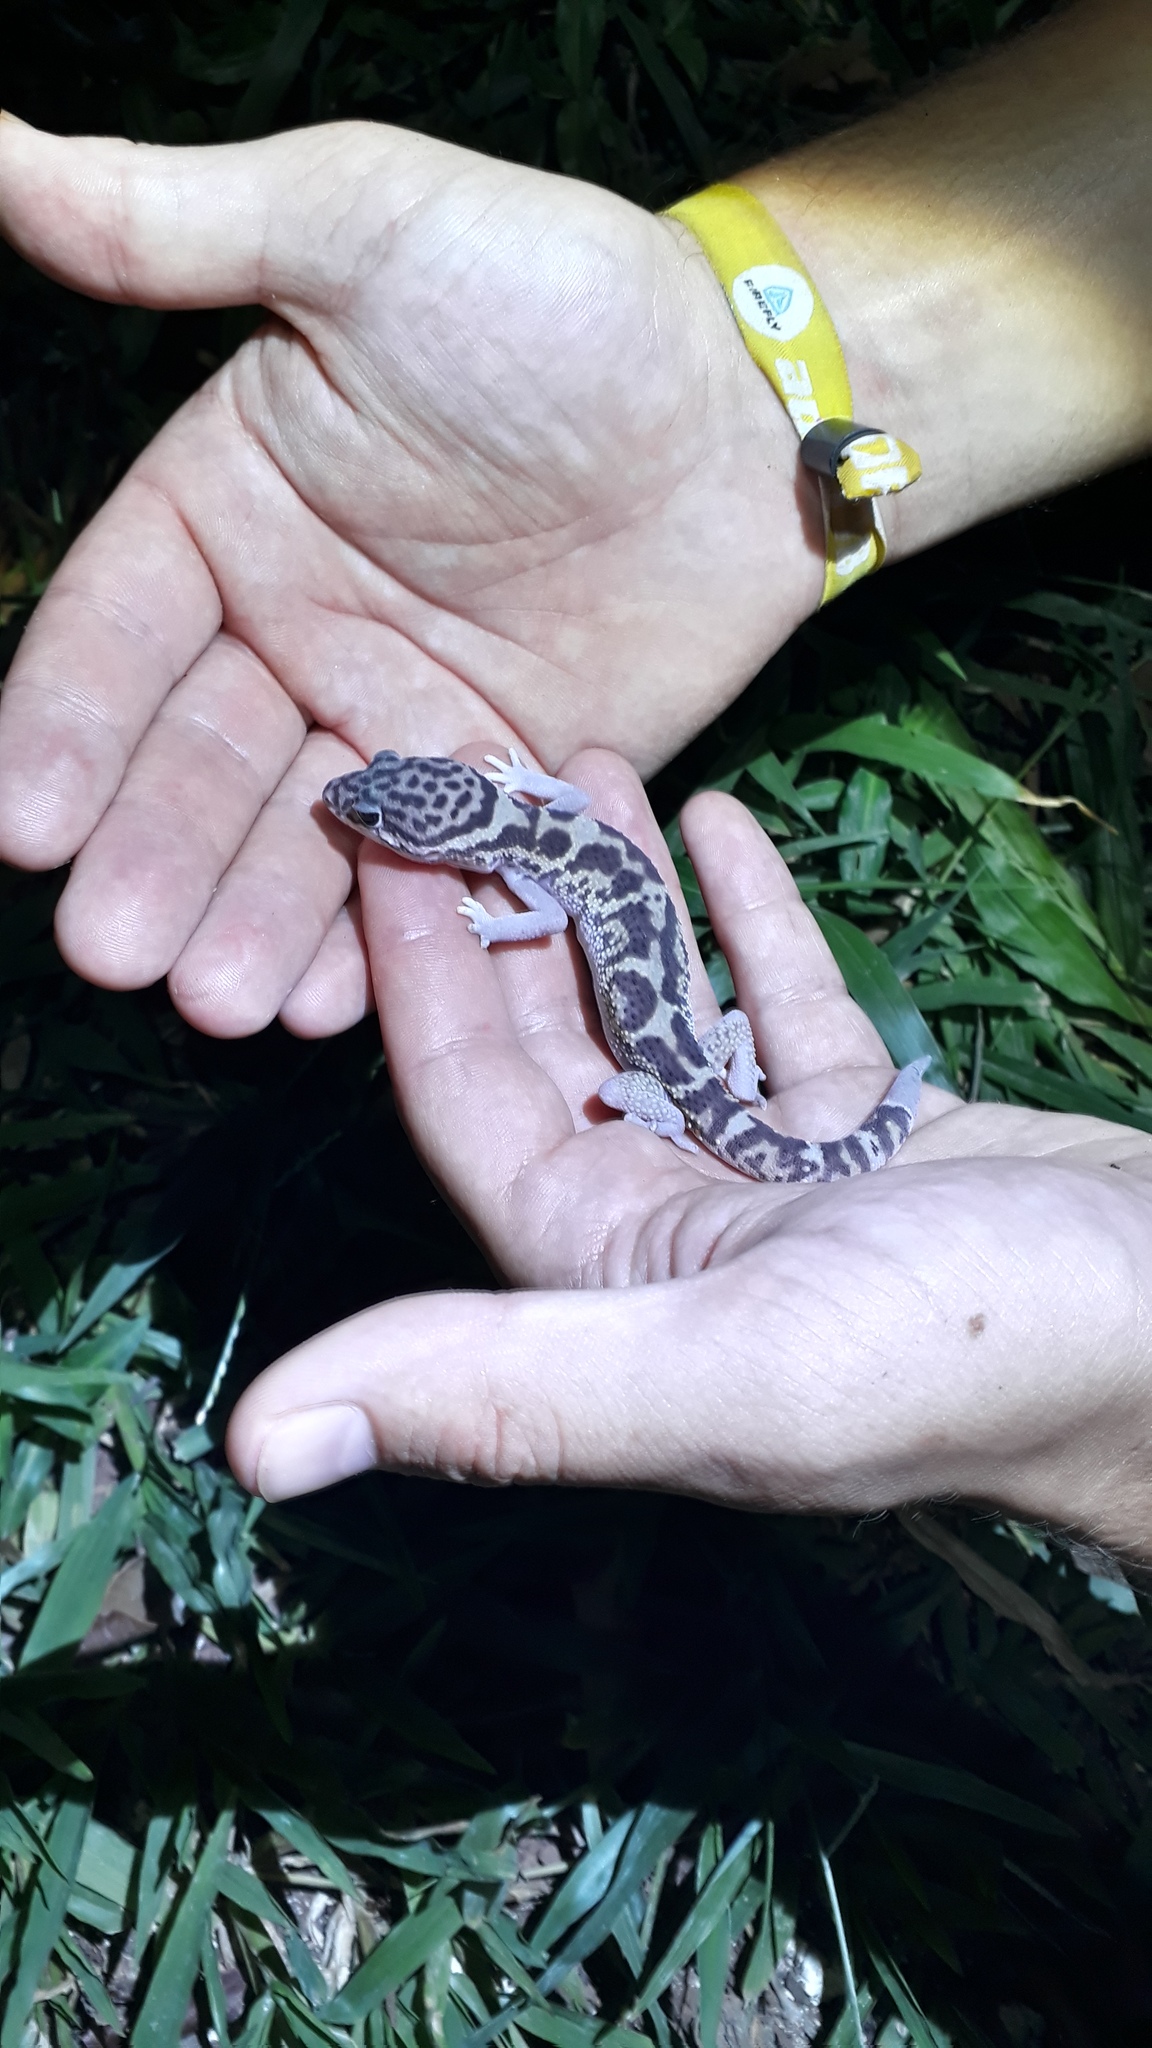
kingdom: Animalia
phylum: Chordata
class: Squamata
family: Eublepharidae
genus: Coleonyx
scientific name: Coleonyx mitratus
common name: Central american banded gecko
